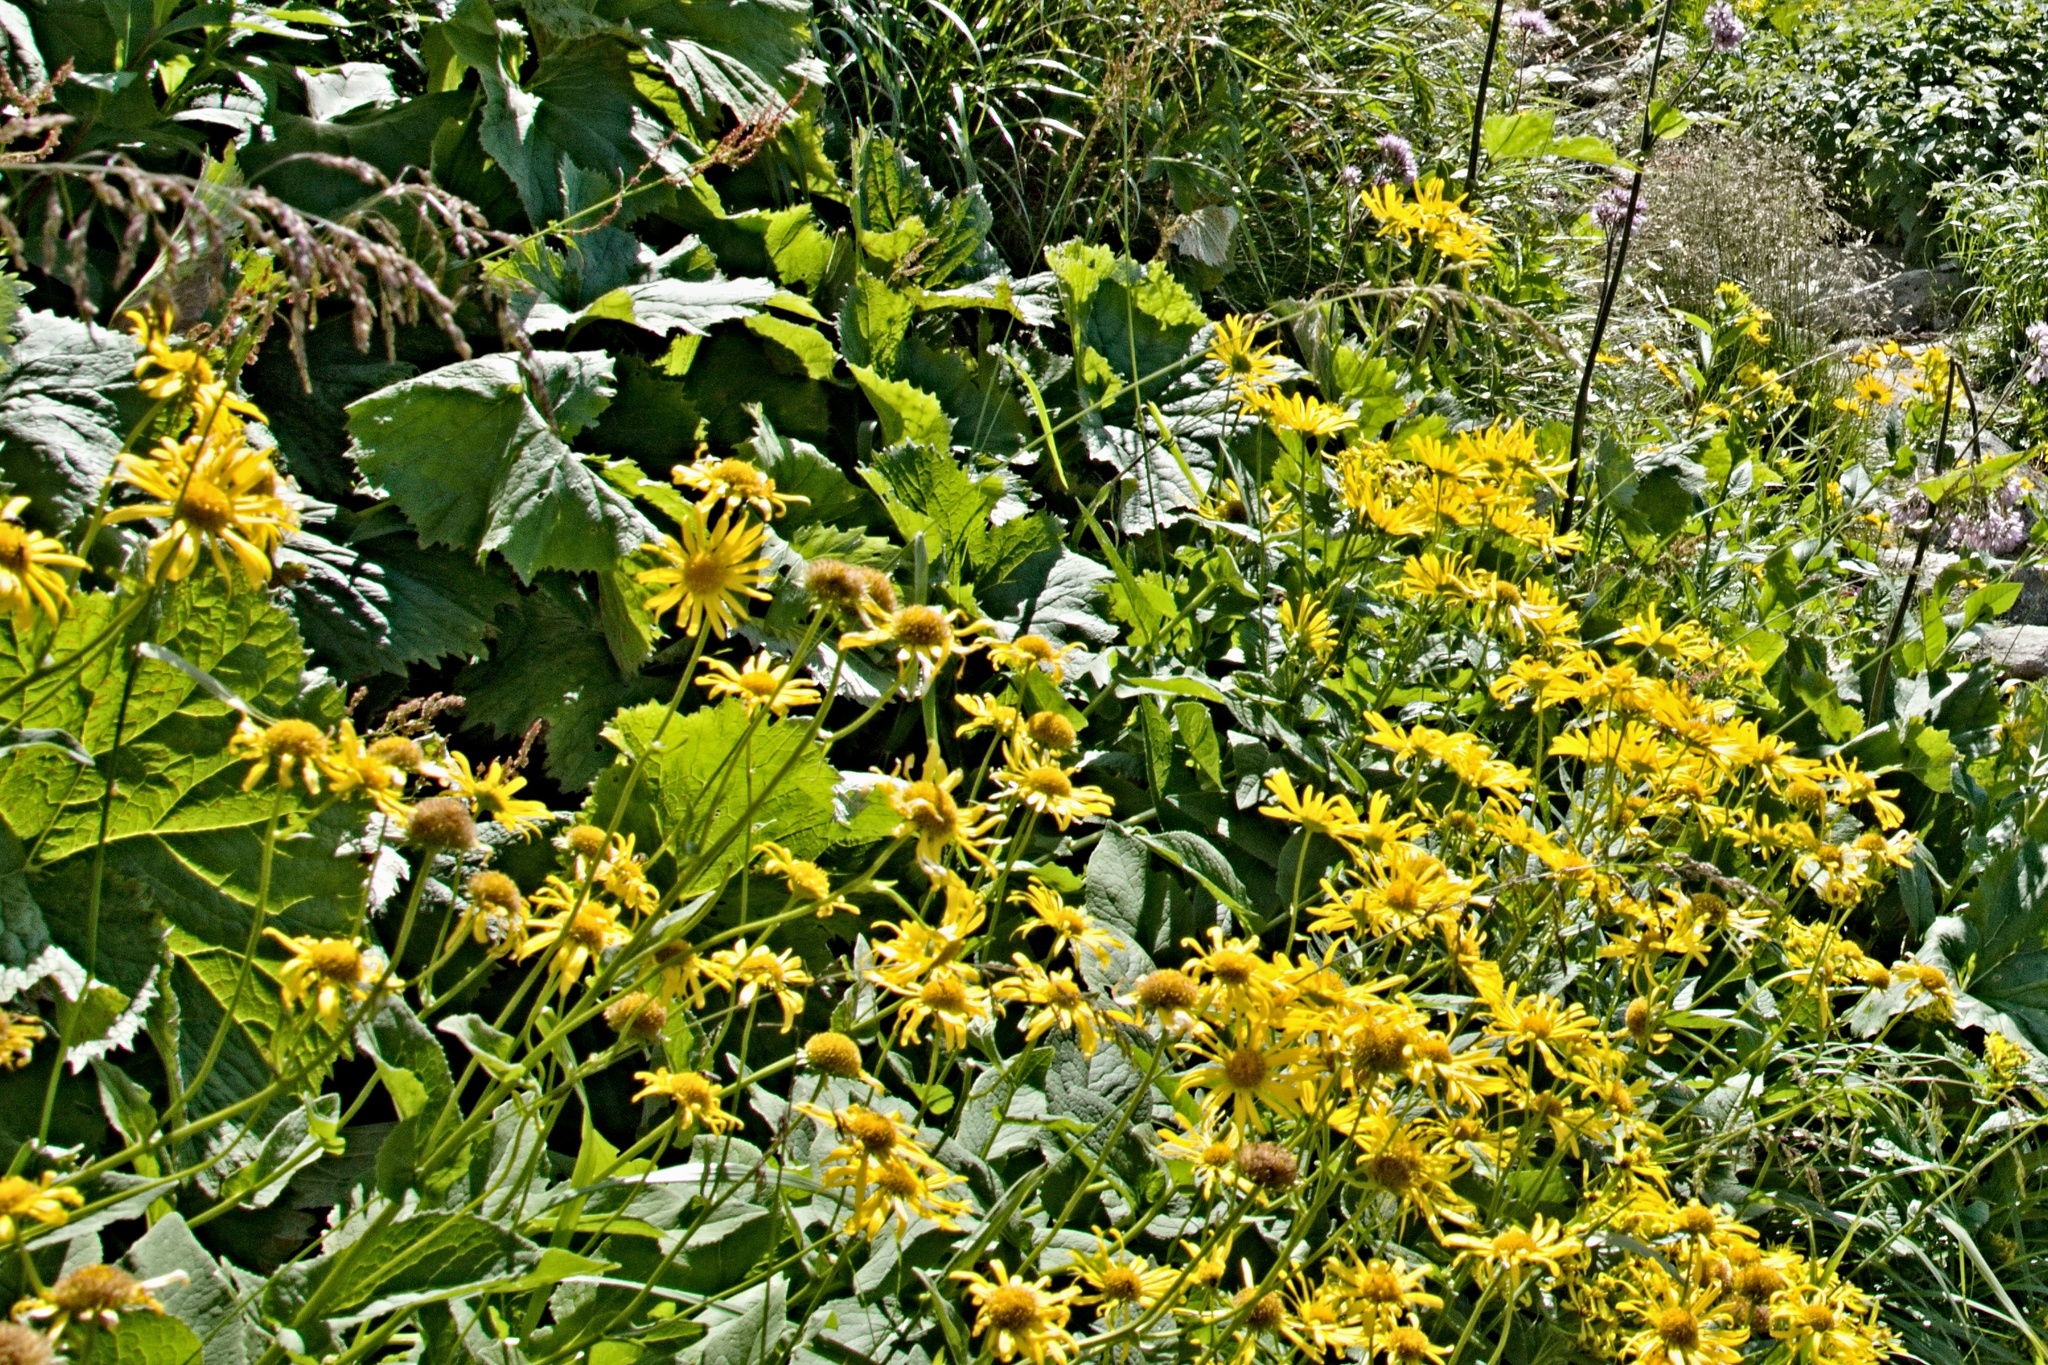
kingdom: Plantae
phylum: Tracheophyta
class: Magnoliopsida
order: Asterales
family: Asteraceae
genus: Doronicum
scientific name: Doronicum austriacum
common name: Austrian leopard's-bane
